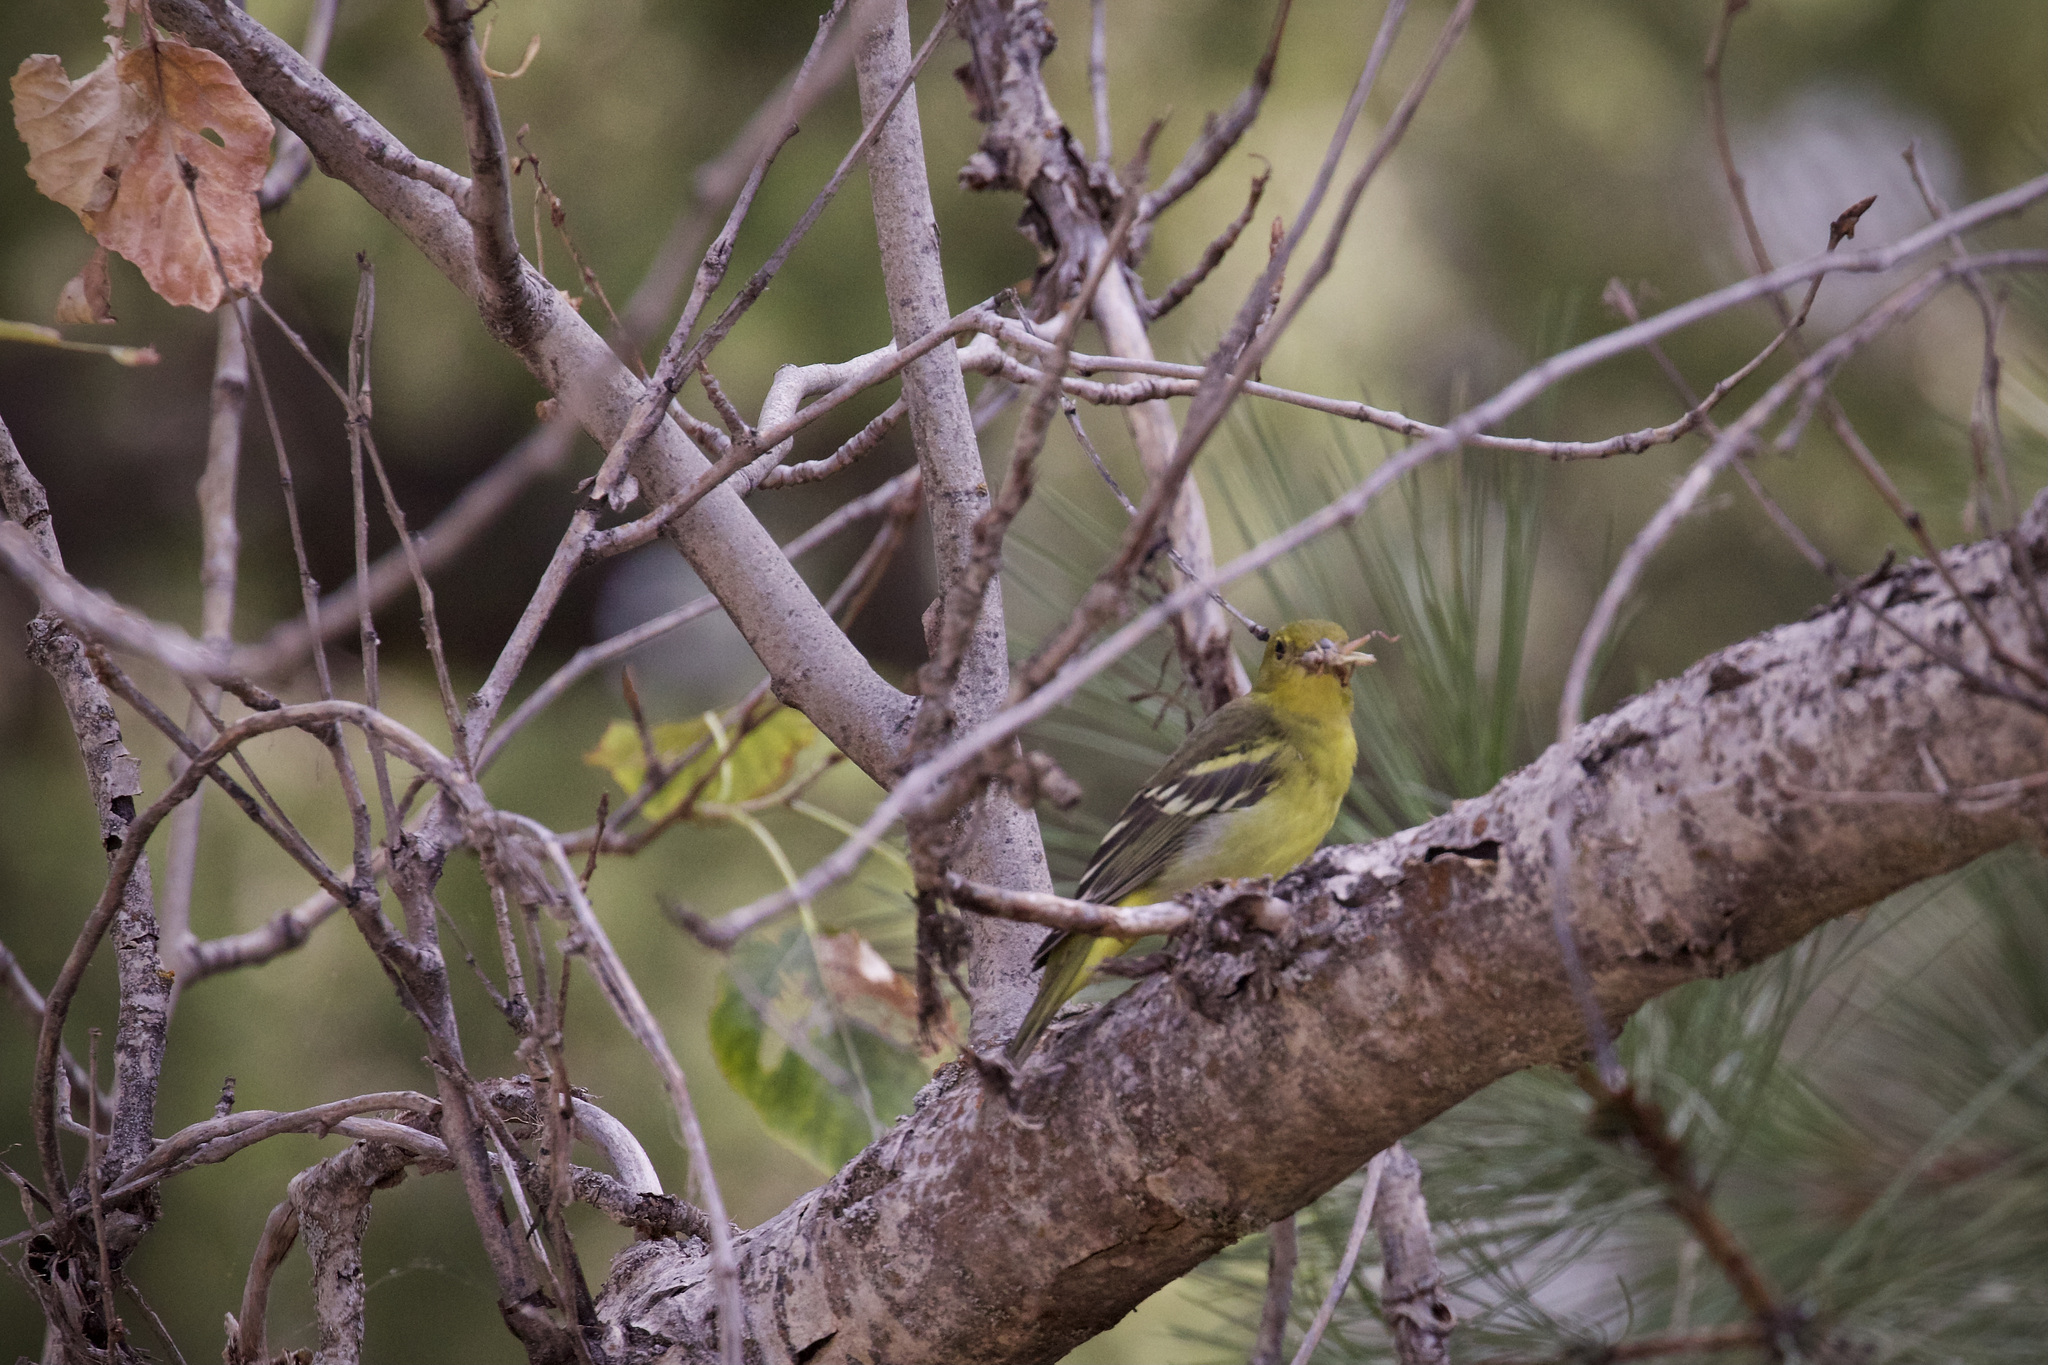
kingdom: Animalia
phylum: Chordata
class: Aves
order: Passeriformes
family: Cardinalidae
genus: Piranga
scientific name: Piranga ludoviciana
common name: Western tanager
